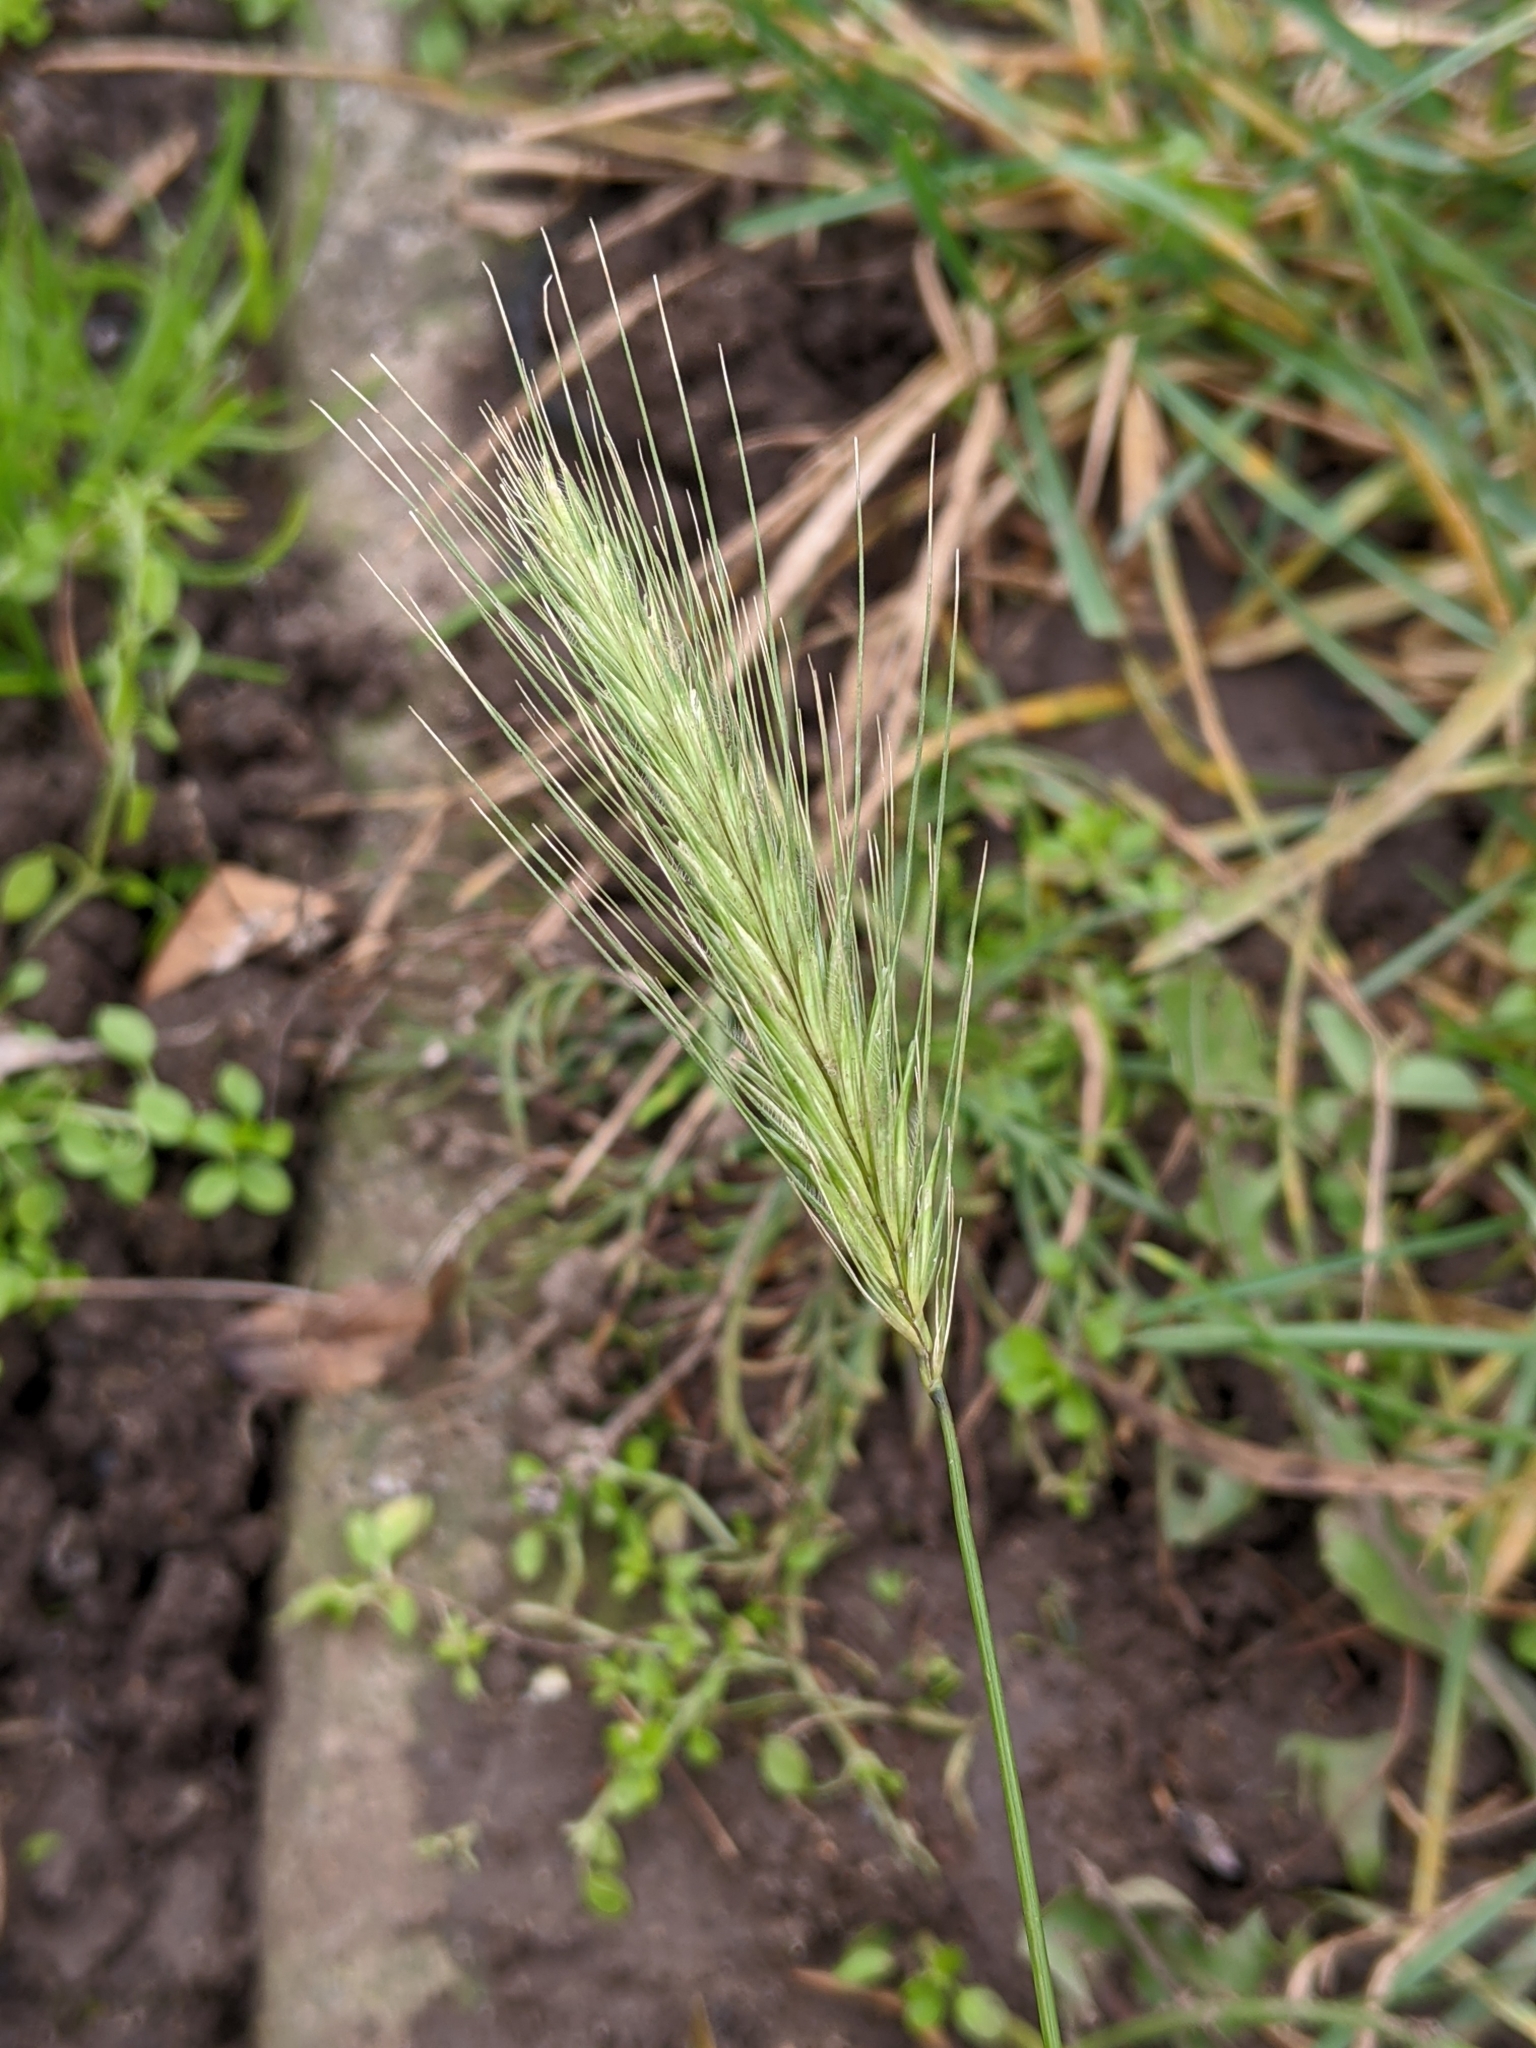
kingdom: Plantae
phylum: Tracheophyta
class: Liliopsida
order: Poales
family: Poaceae
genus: Hordeum
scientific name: Hordeum murinum
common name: Wall barley
